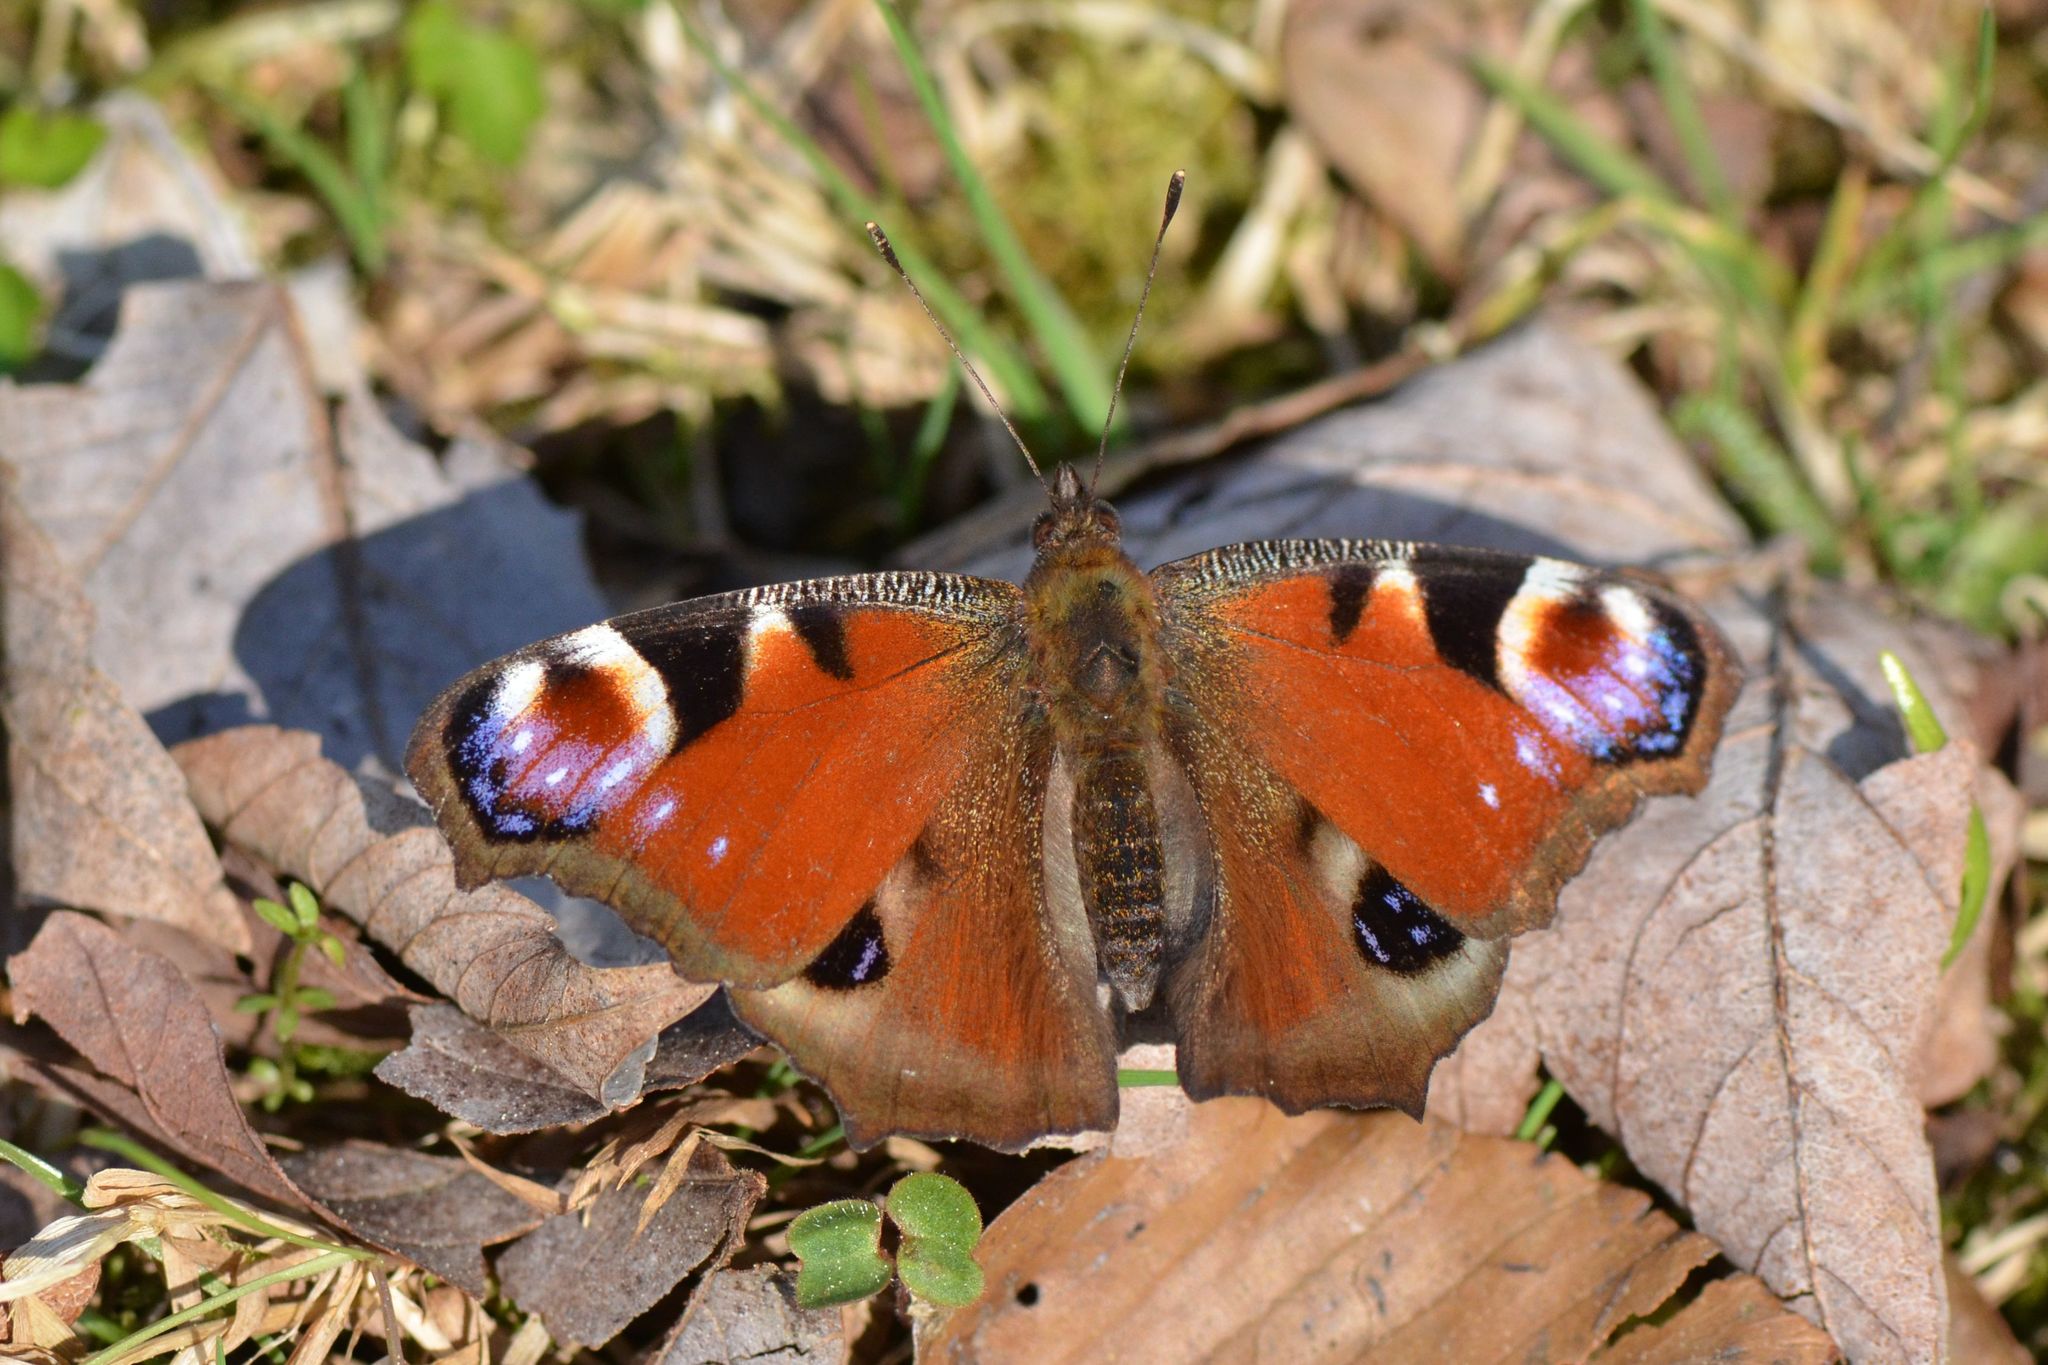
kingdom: Animalia
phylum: Arthropoda
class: Insecta
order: Lepidoptera
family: Nymphalidae
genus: Aglais
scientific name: Aglais io
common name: Peacock
